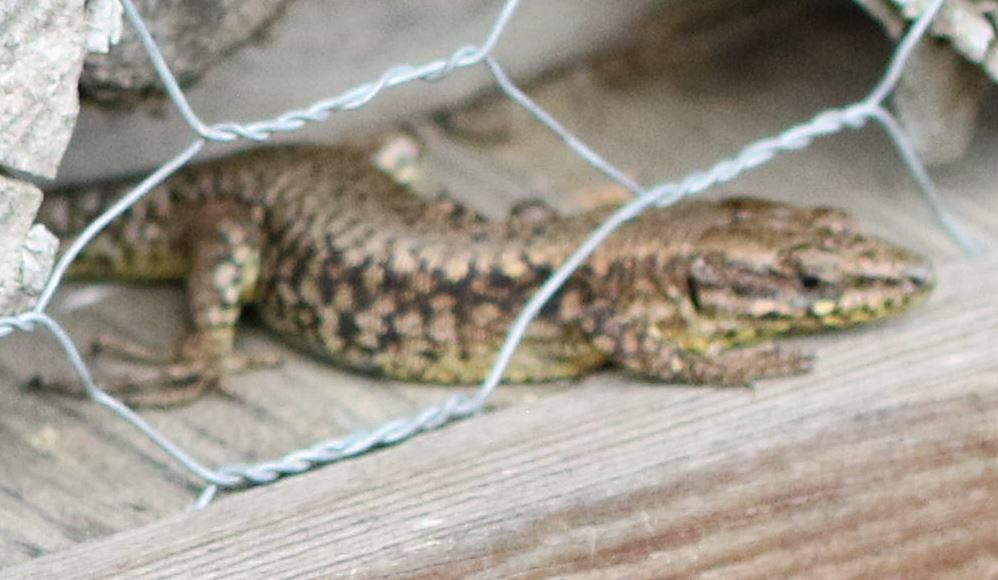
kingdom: Animalia
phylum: Chordata
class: Squamata
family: Lacertidae
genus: Podarcis
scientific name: Podarcis muralis
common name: Common wall lizard
